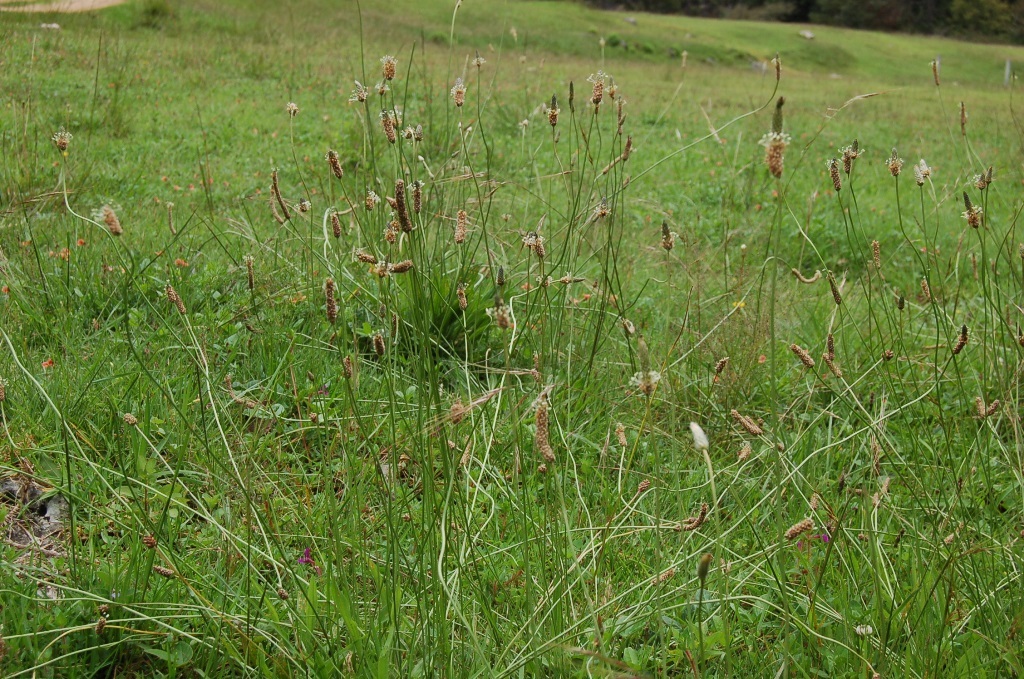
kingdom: Plantae
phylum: Tracheophyta
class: Magnoliopsida
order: Lamiales
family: Plantaginaceae
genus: Plantago
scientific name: Plantago lanceolata
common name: Ribwort plantain
